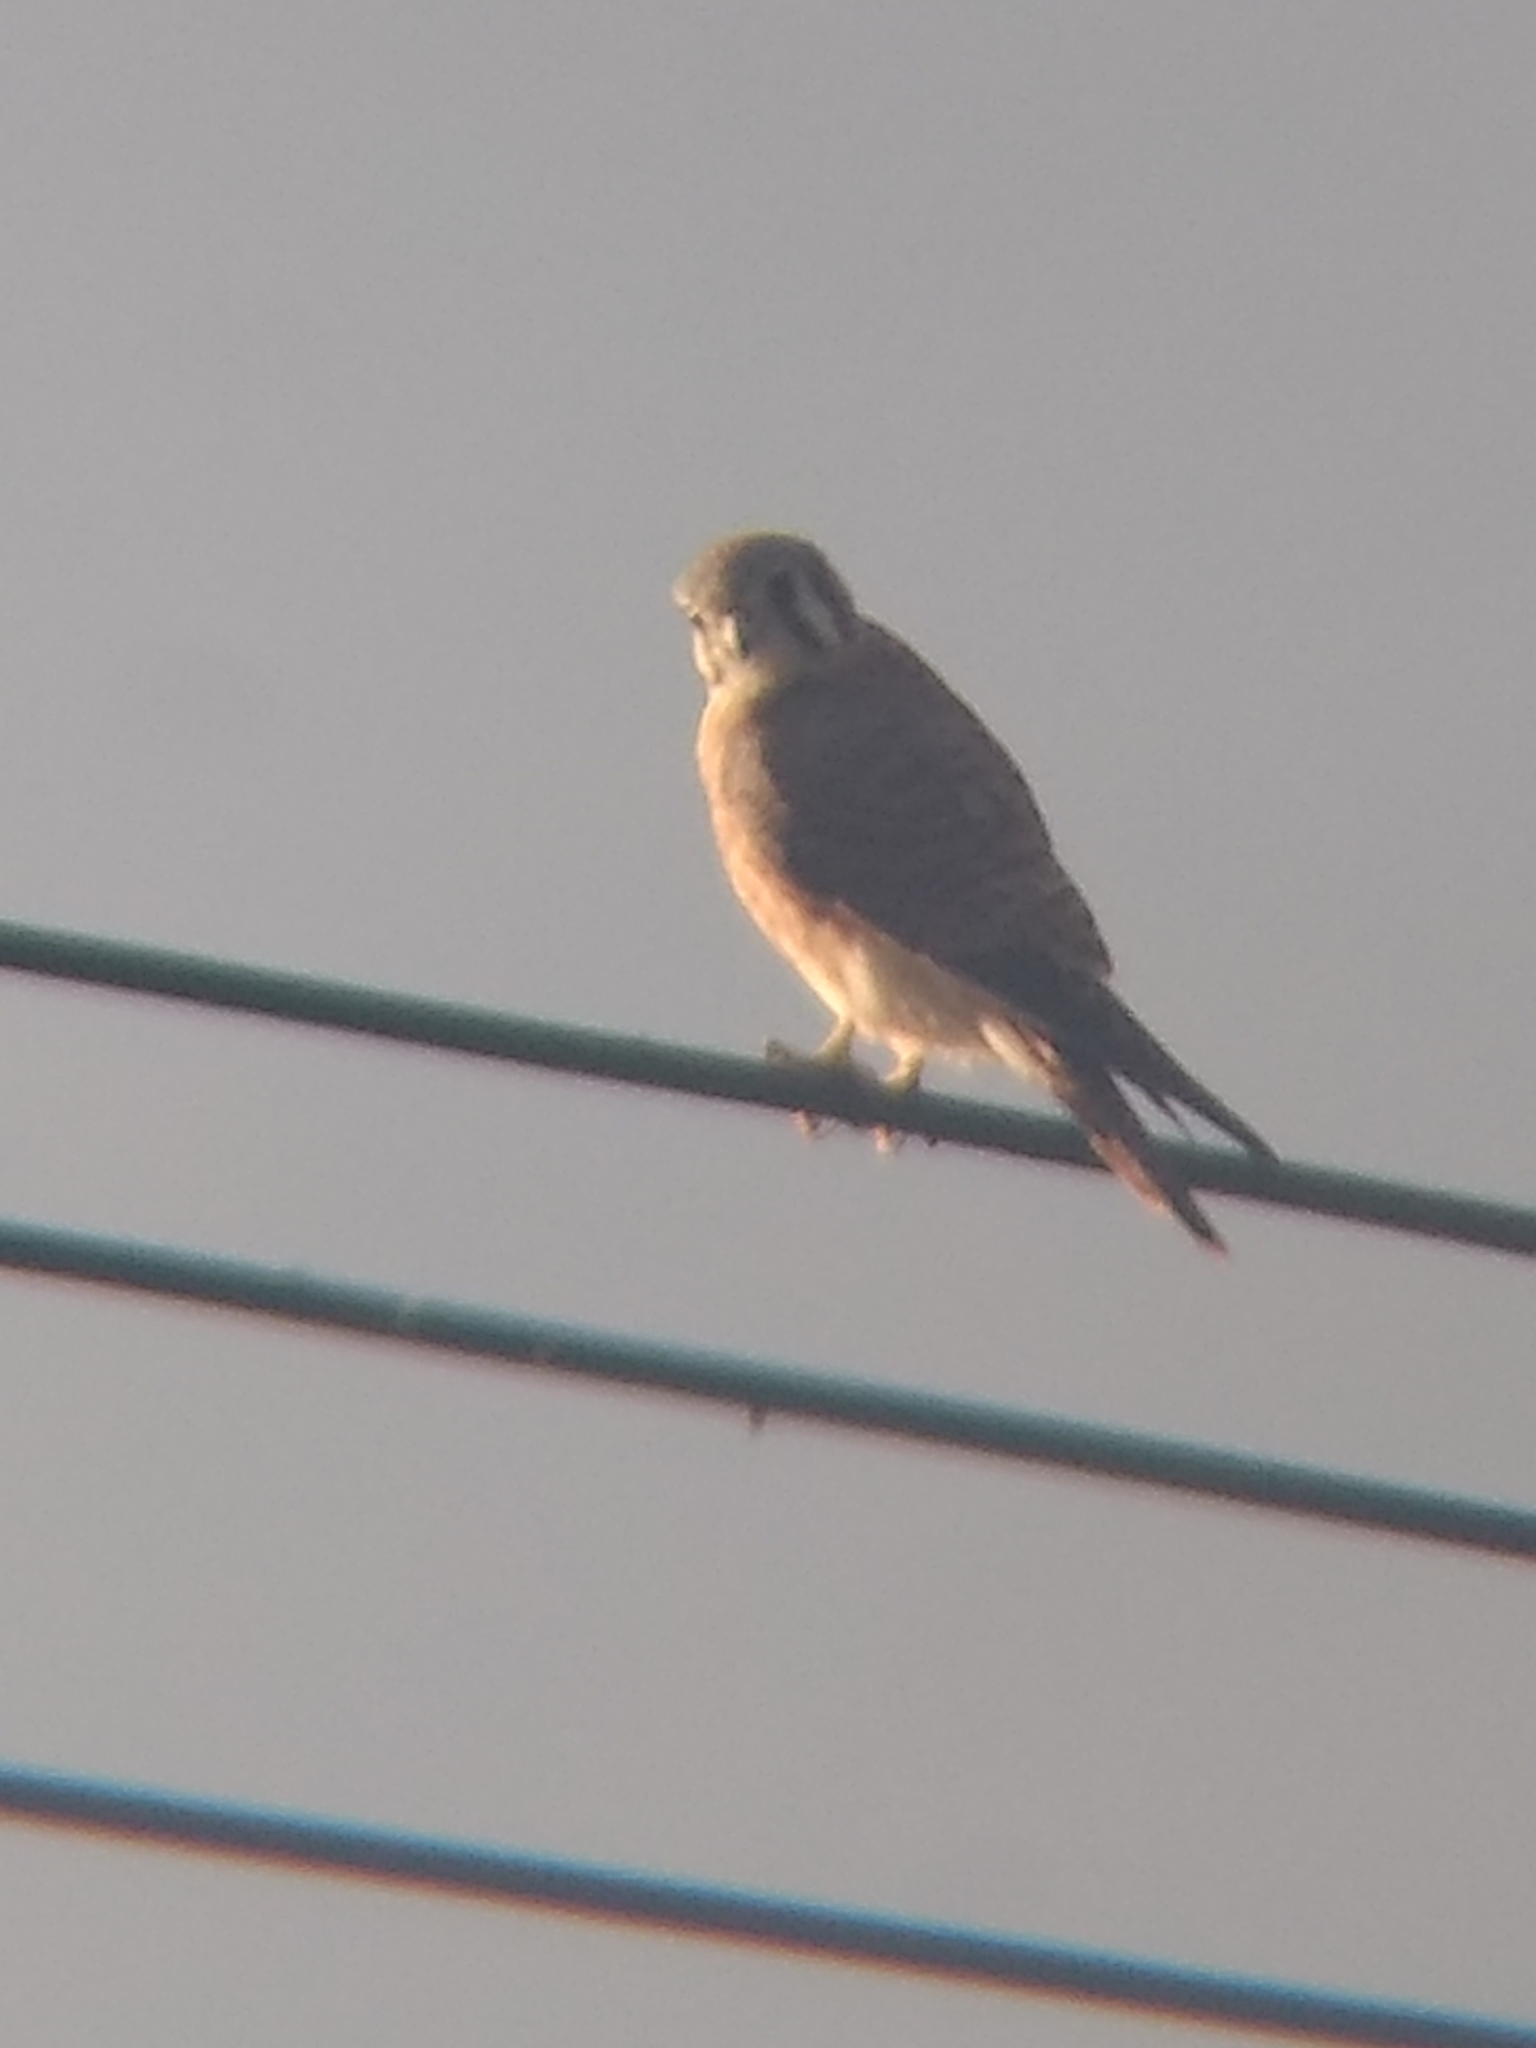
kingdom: Animalia
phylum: Chordata
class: Aves
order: Falconiformes
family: Falconidae
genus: Falco
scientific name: Falco sparverius
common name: American kestrel
